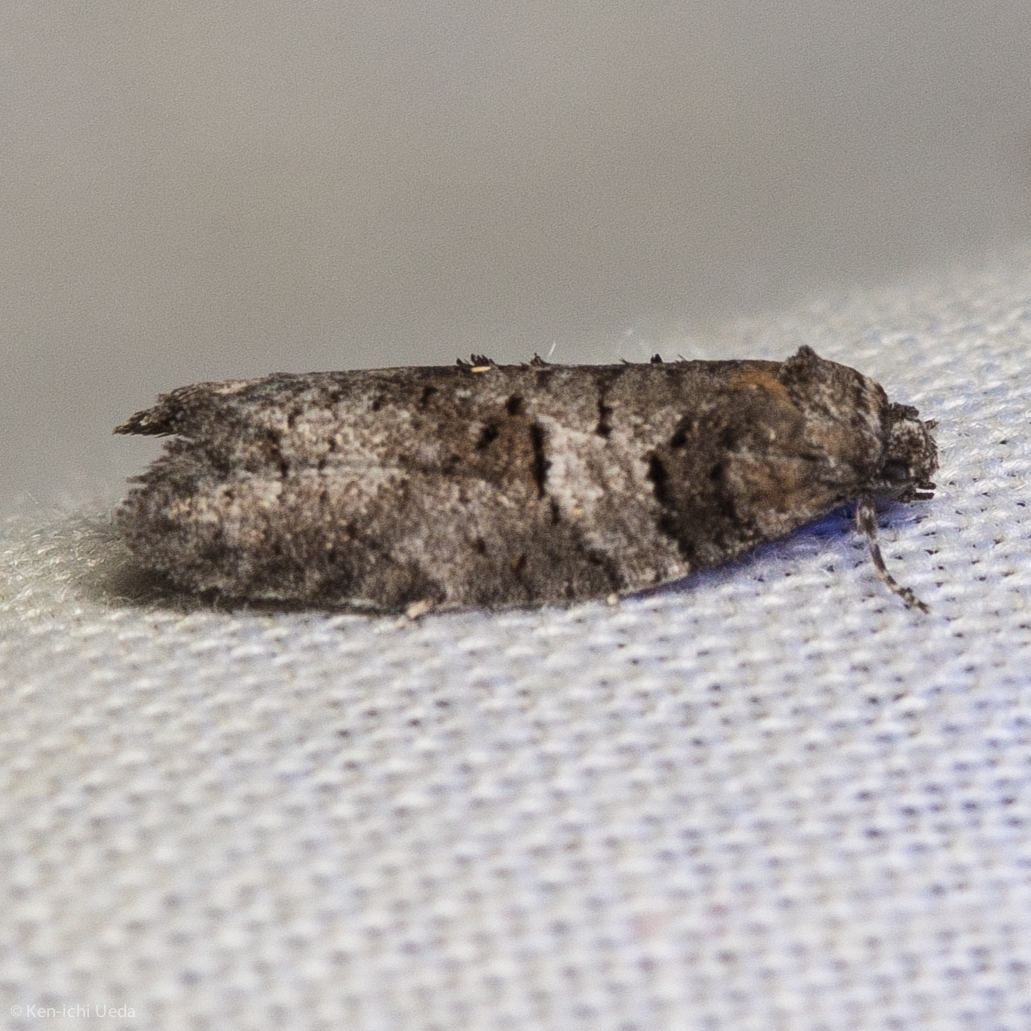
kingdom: Animalia
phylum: Arthropoda
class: Insecta
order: Lepidoptera
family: Tortricidae
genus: Decodes
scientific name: Decodes basiplagana
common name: Gray-marked tortricid
